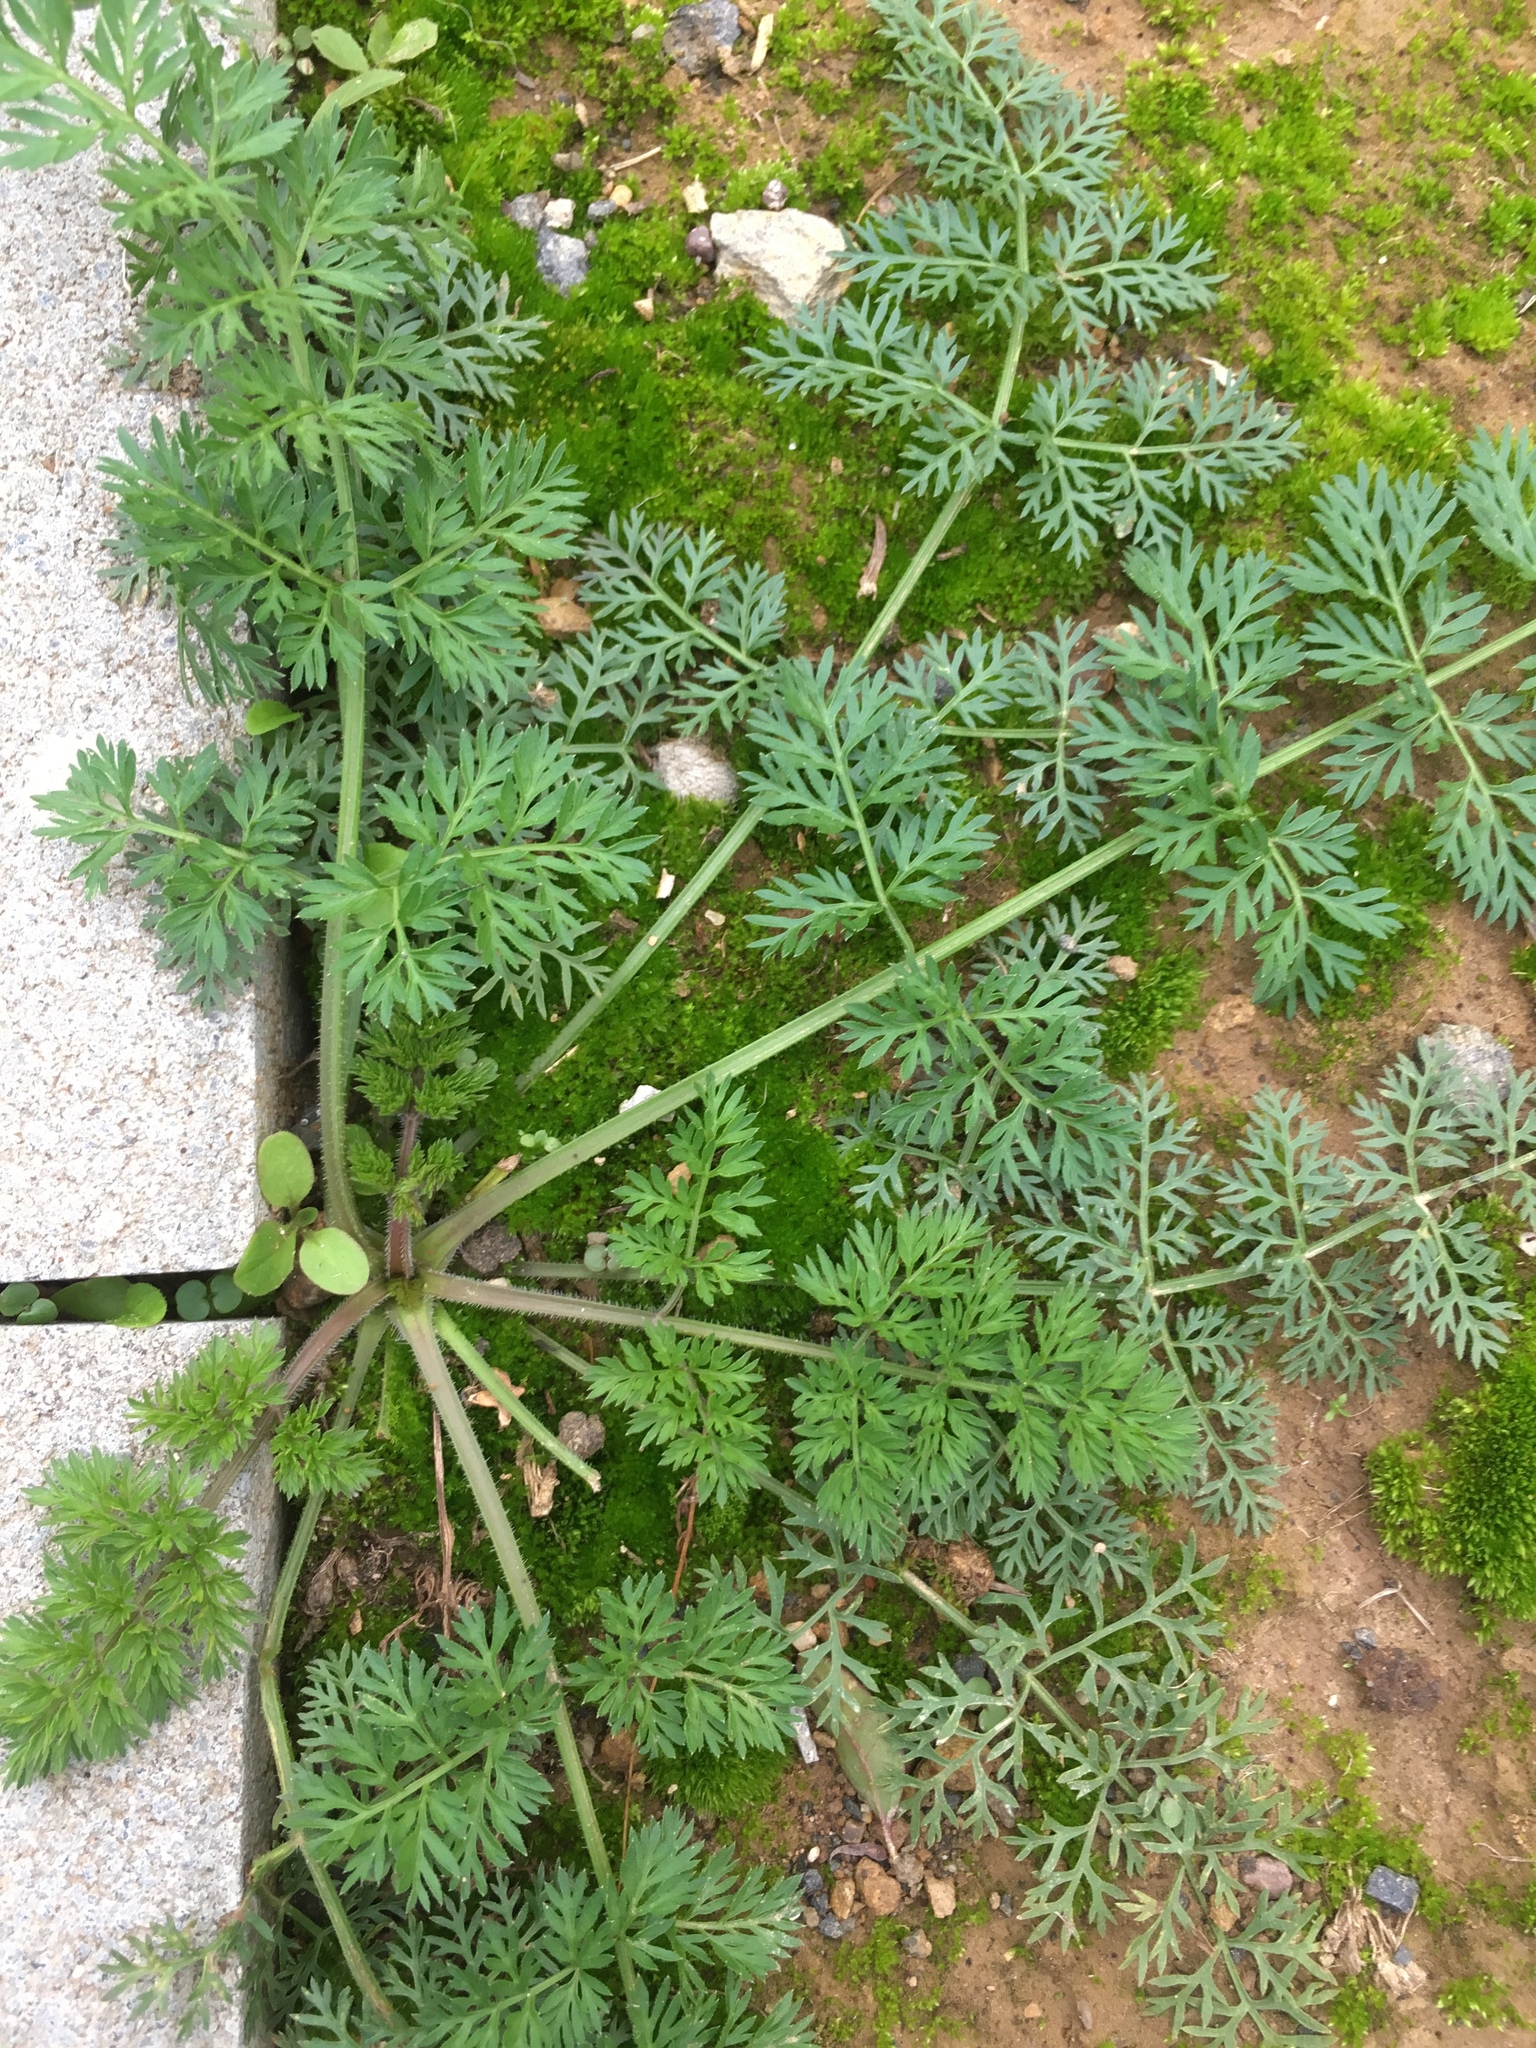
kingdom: Plantae
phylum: Tracheophyta
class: Magnoliopsida
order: Apiales
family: Apiaceae
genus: Daucus
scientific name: Daucus carota
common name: Wild carrot
